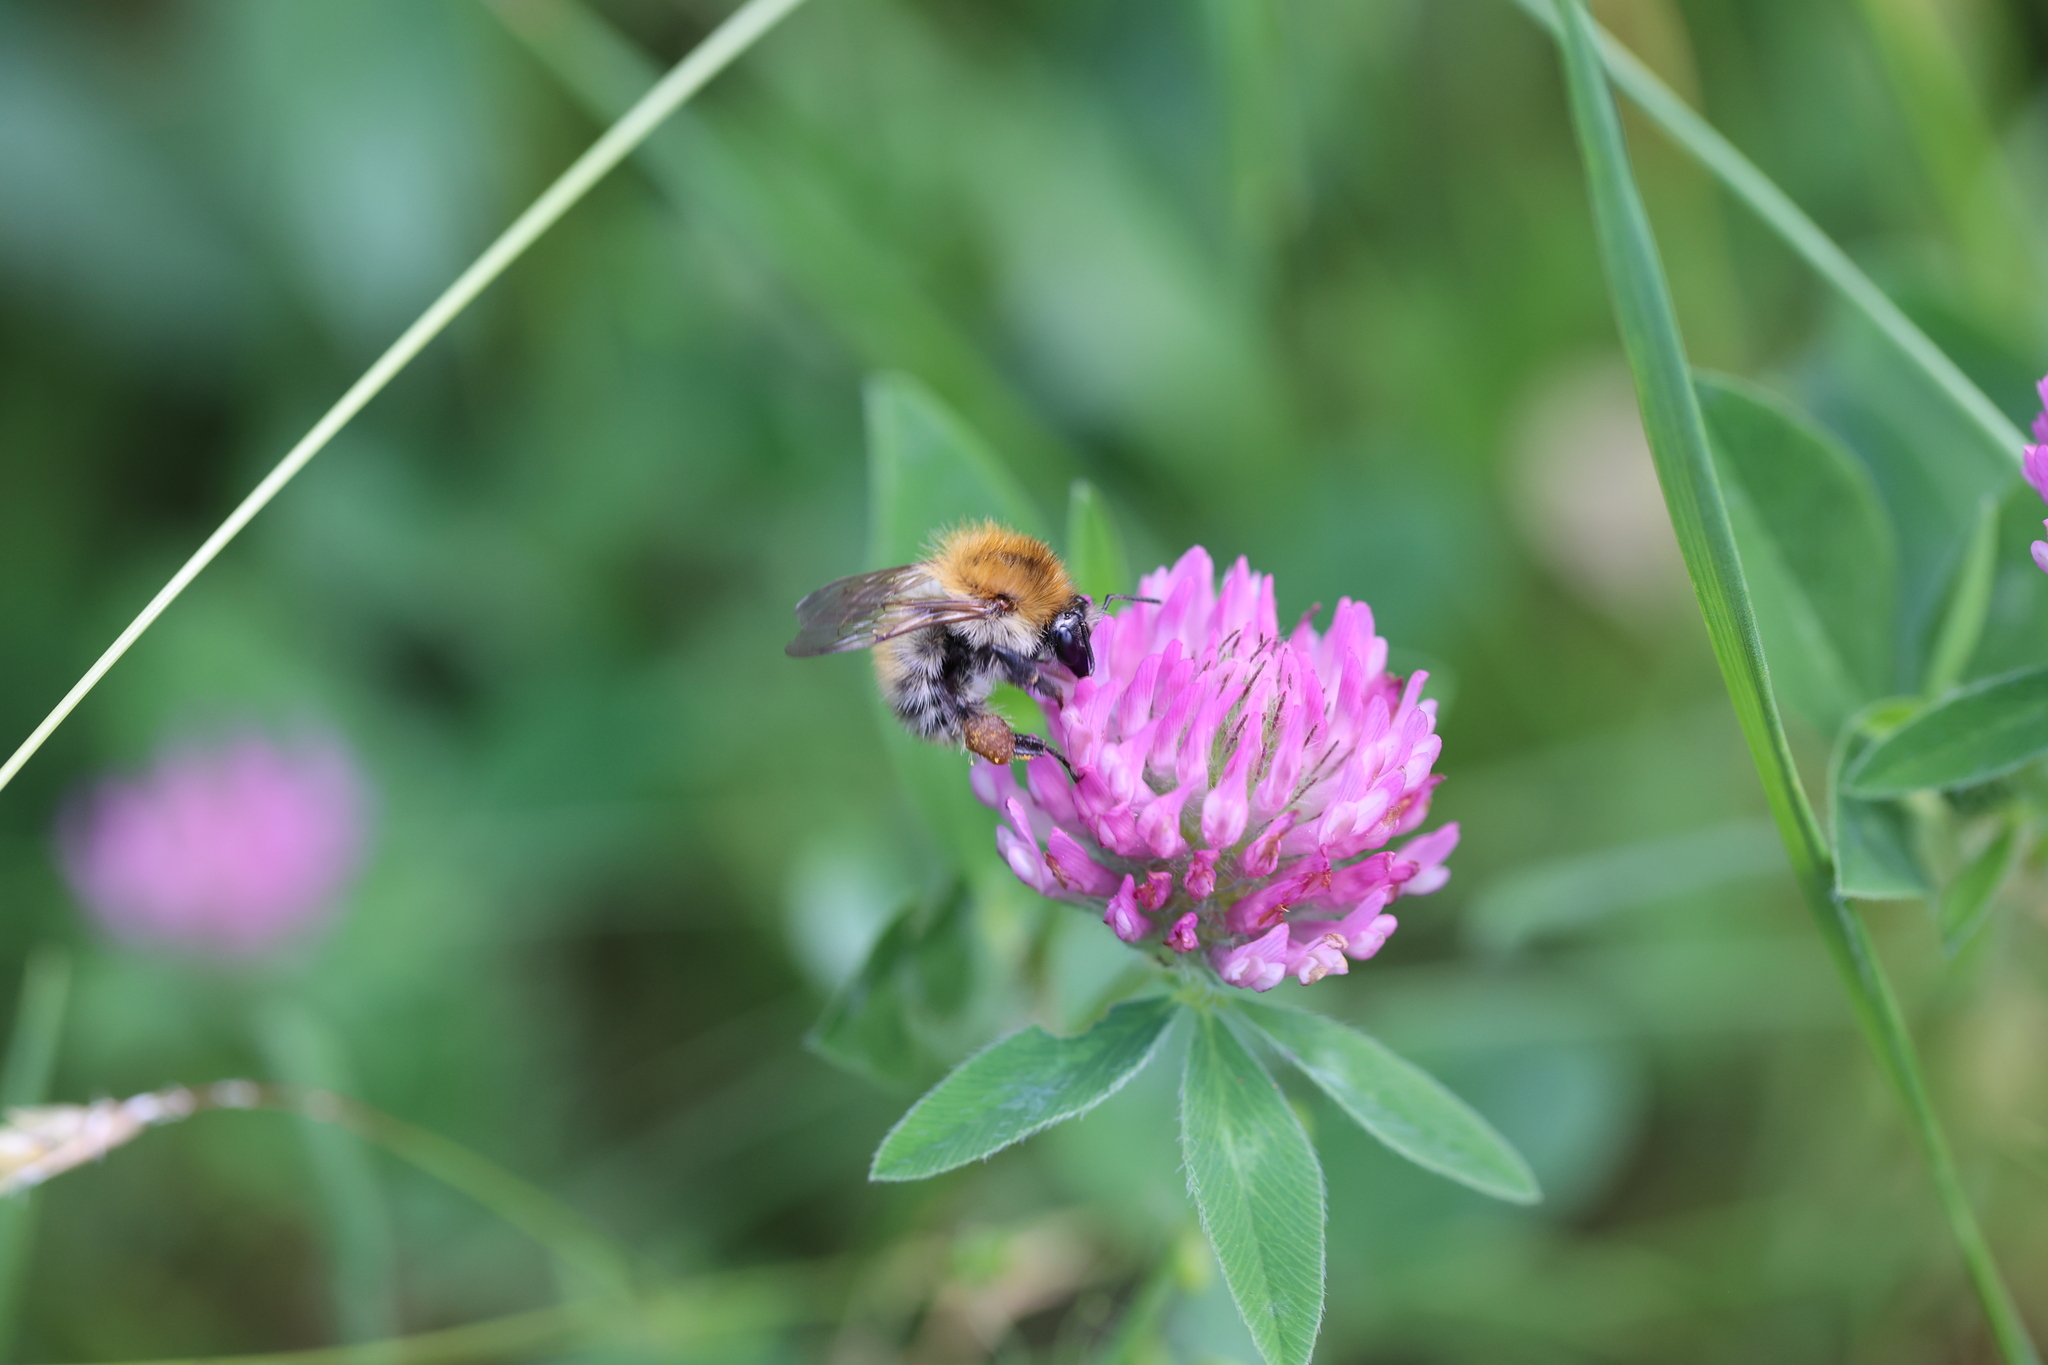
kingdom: Animalia
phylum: Arthropoda
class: Insecta
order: Hymenoptera
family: Apidae
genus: Bombus
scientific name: Bombus pascuorum
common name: Common carder bee
